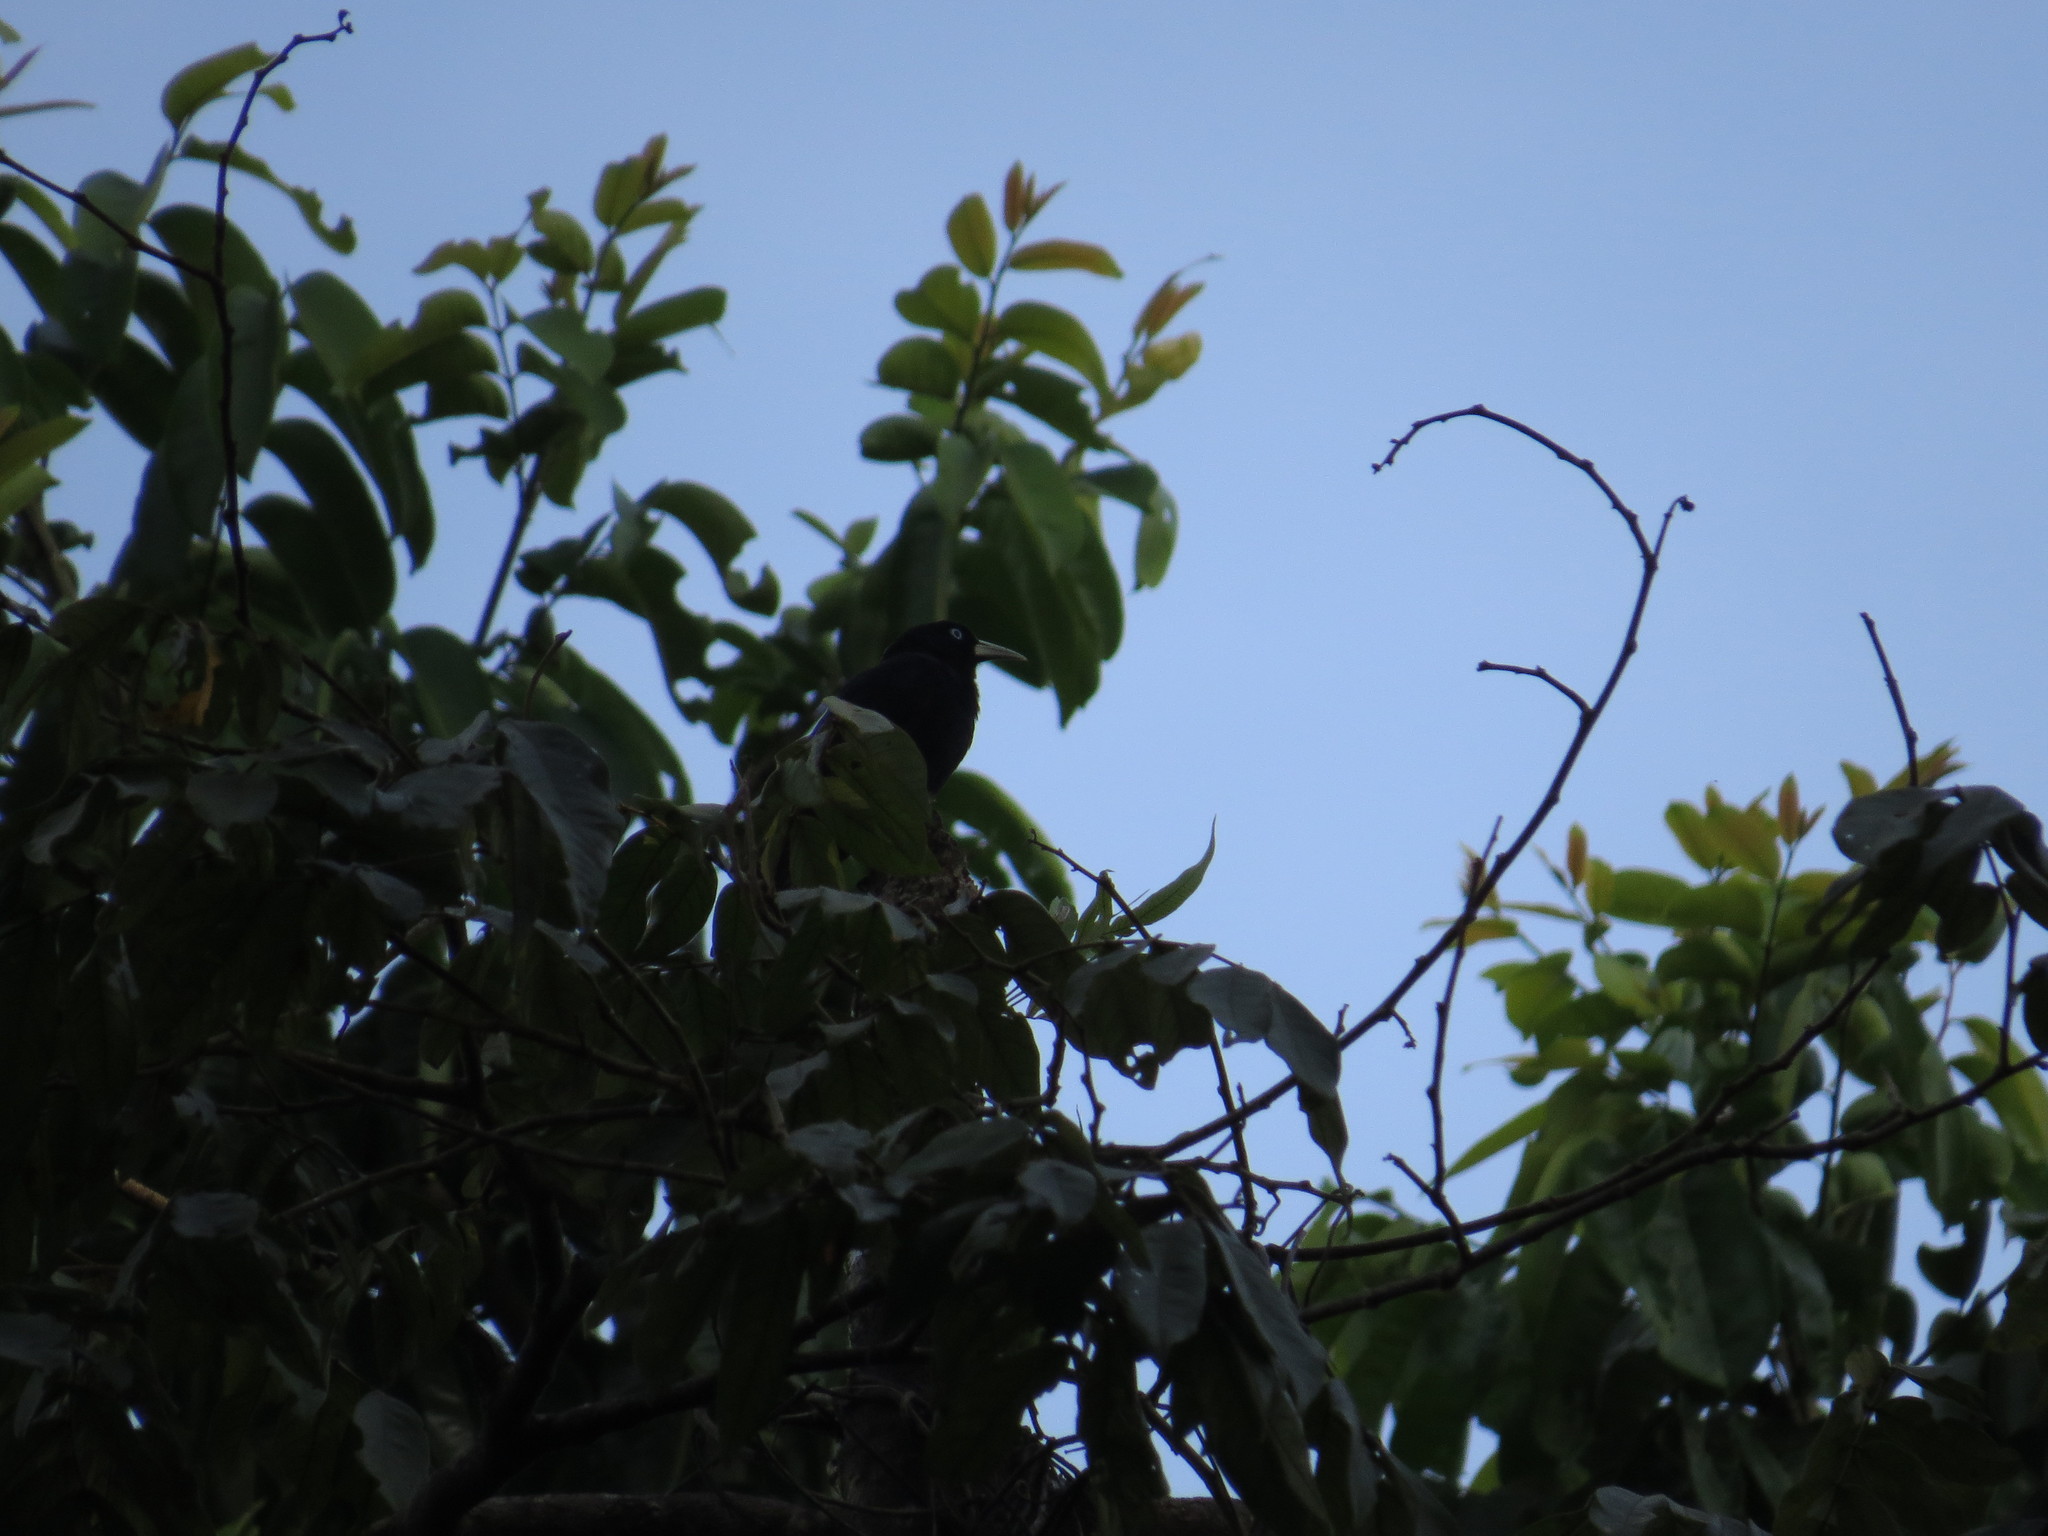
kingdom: Animalia
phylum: Chordata
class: Aves
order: Passeriformes
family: Icteridae
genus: Cacicus
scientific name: Cacicus uropygialis
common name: Scarlet-rumped cacique
